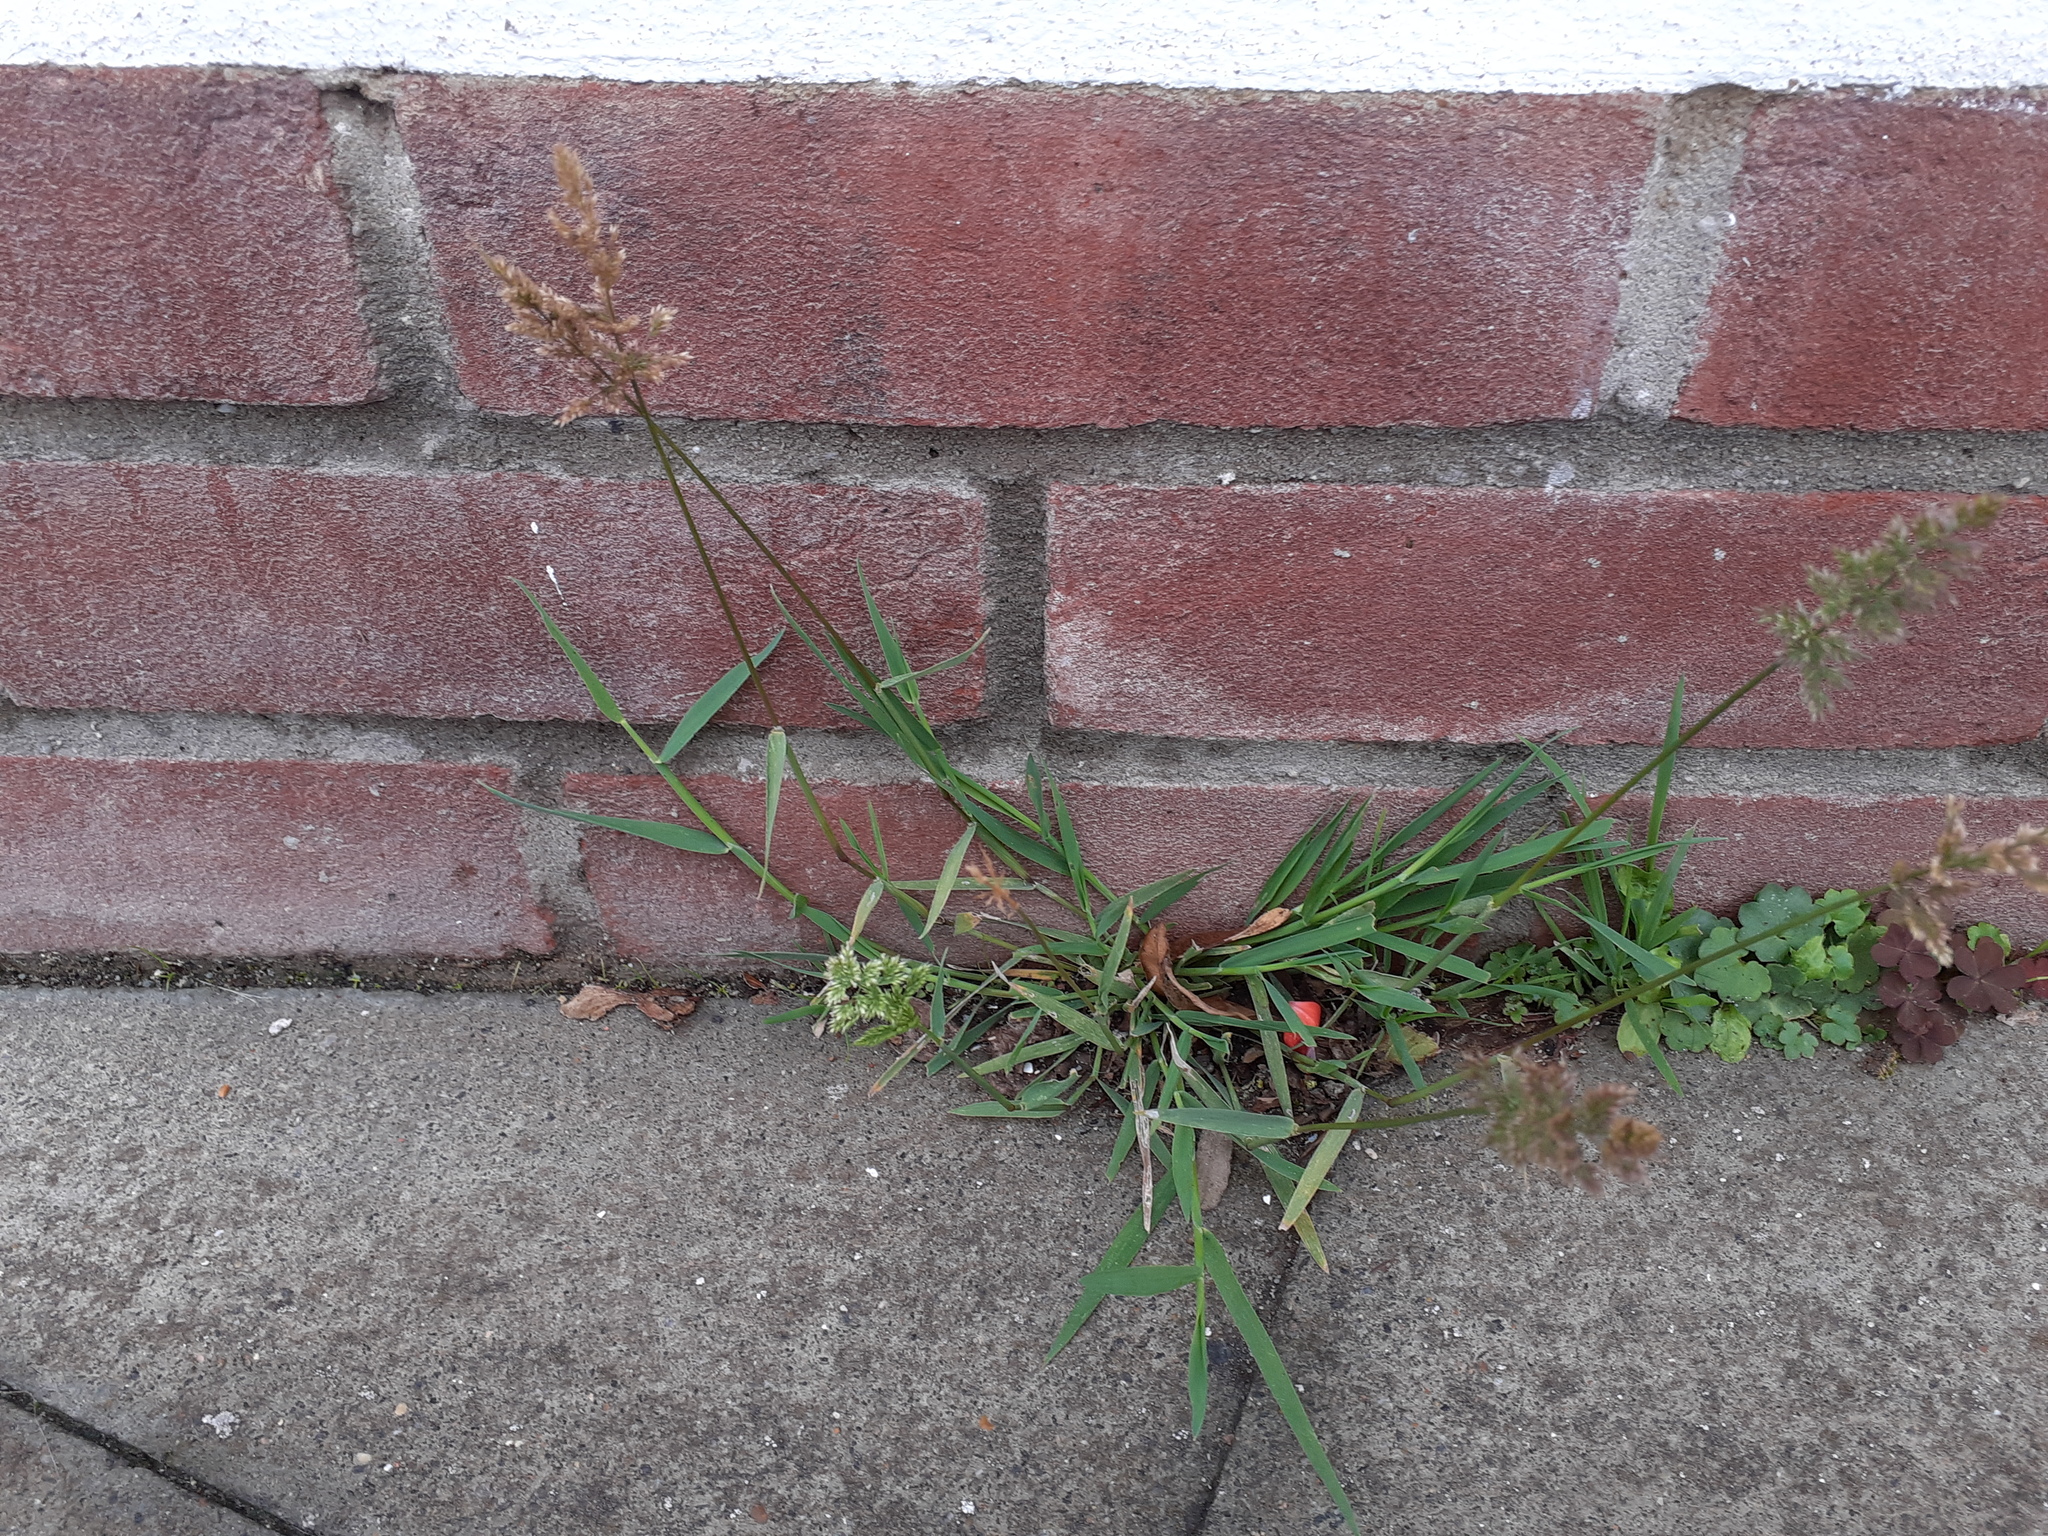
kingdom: Plantae
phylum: Tracheophyta
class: Liliopsida
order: Poales
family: Poaceae
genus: Polypogon
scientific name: Polypogon viridis
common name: Water bent
